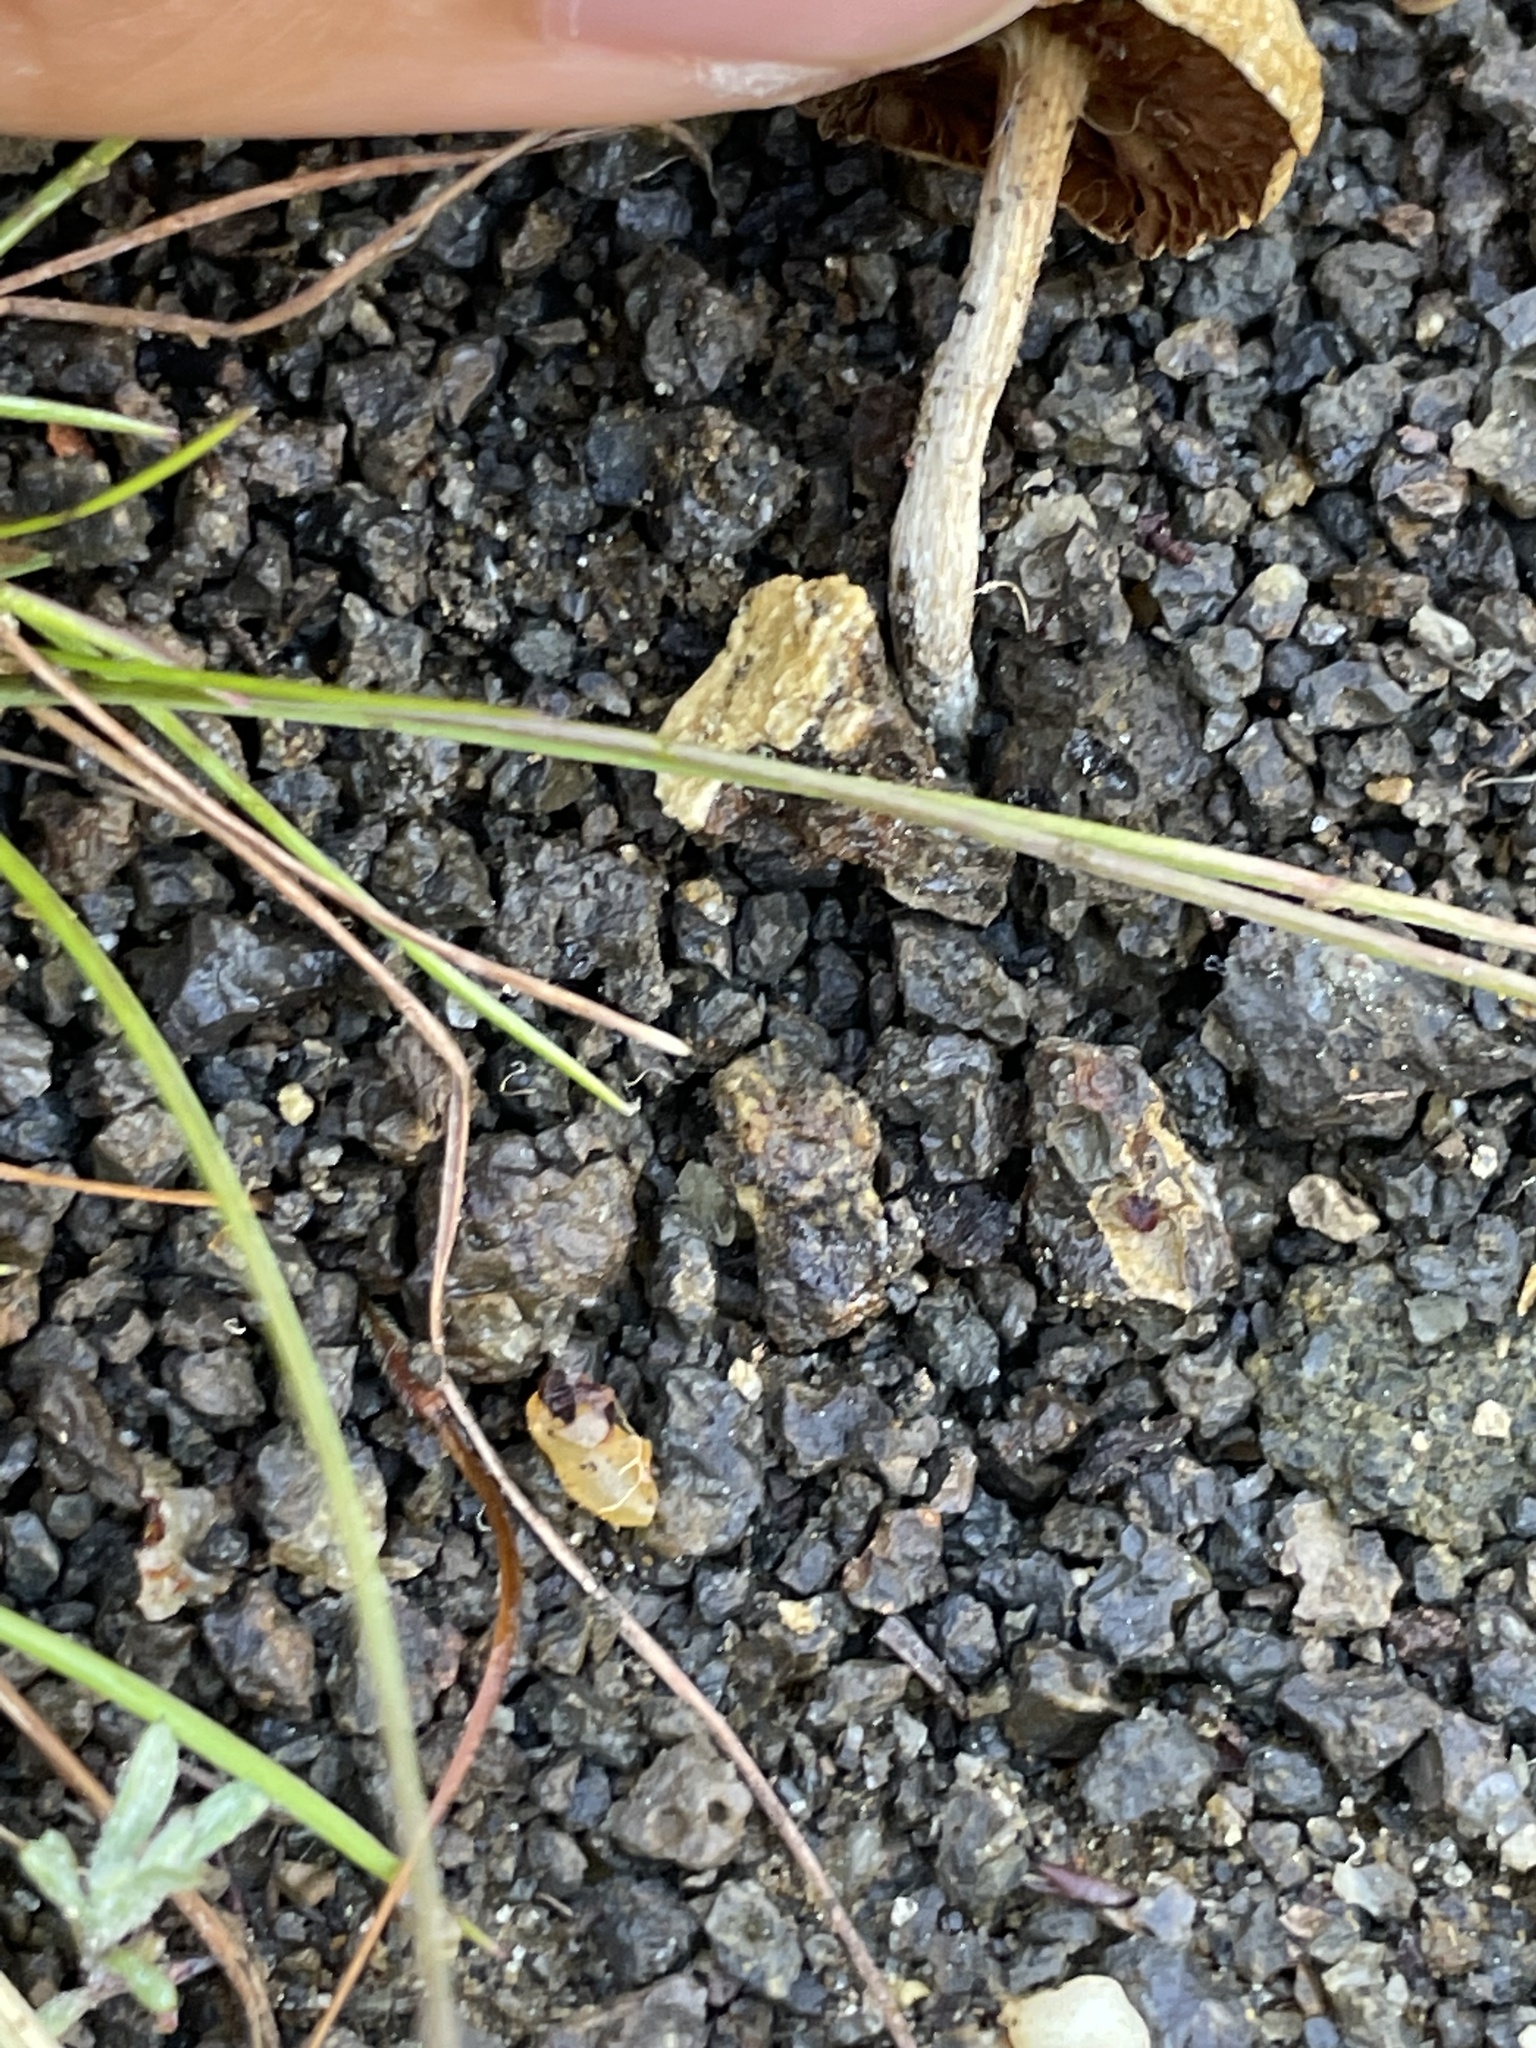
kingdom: Fungi
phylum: Basidiomycota
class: Agaricomycetes
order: Agaricales
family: Strophariaceae
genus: Agrocybe
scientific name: Agrocybe pediades
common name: Common fieldcap
